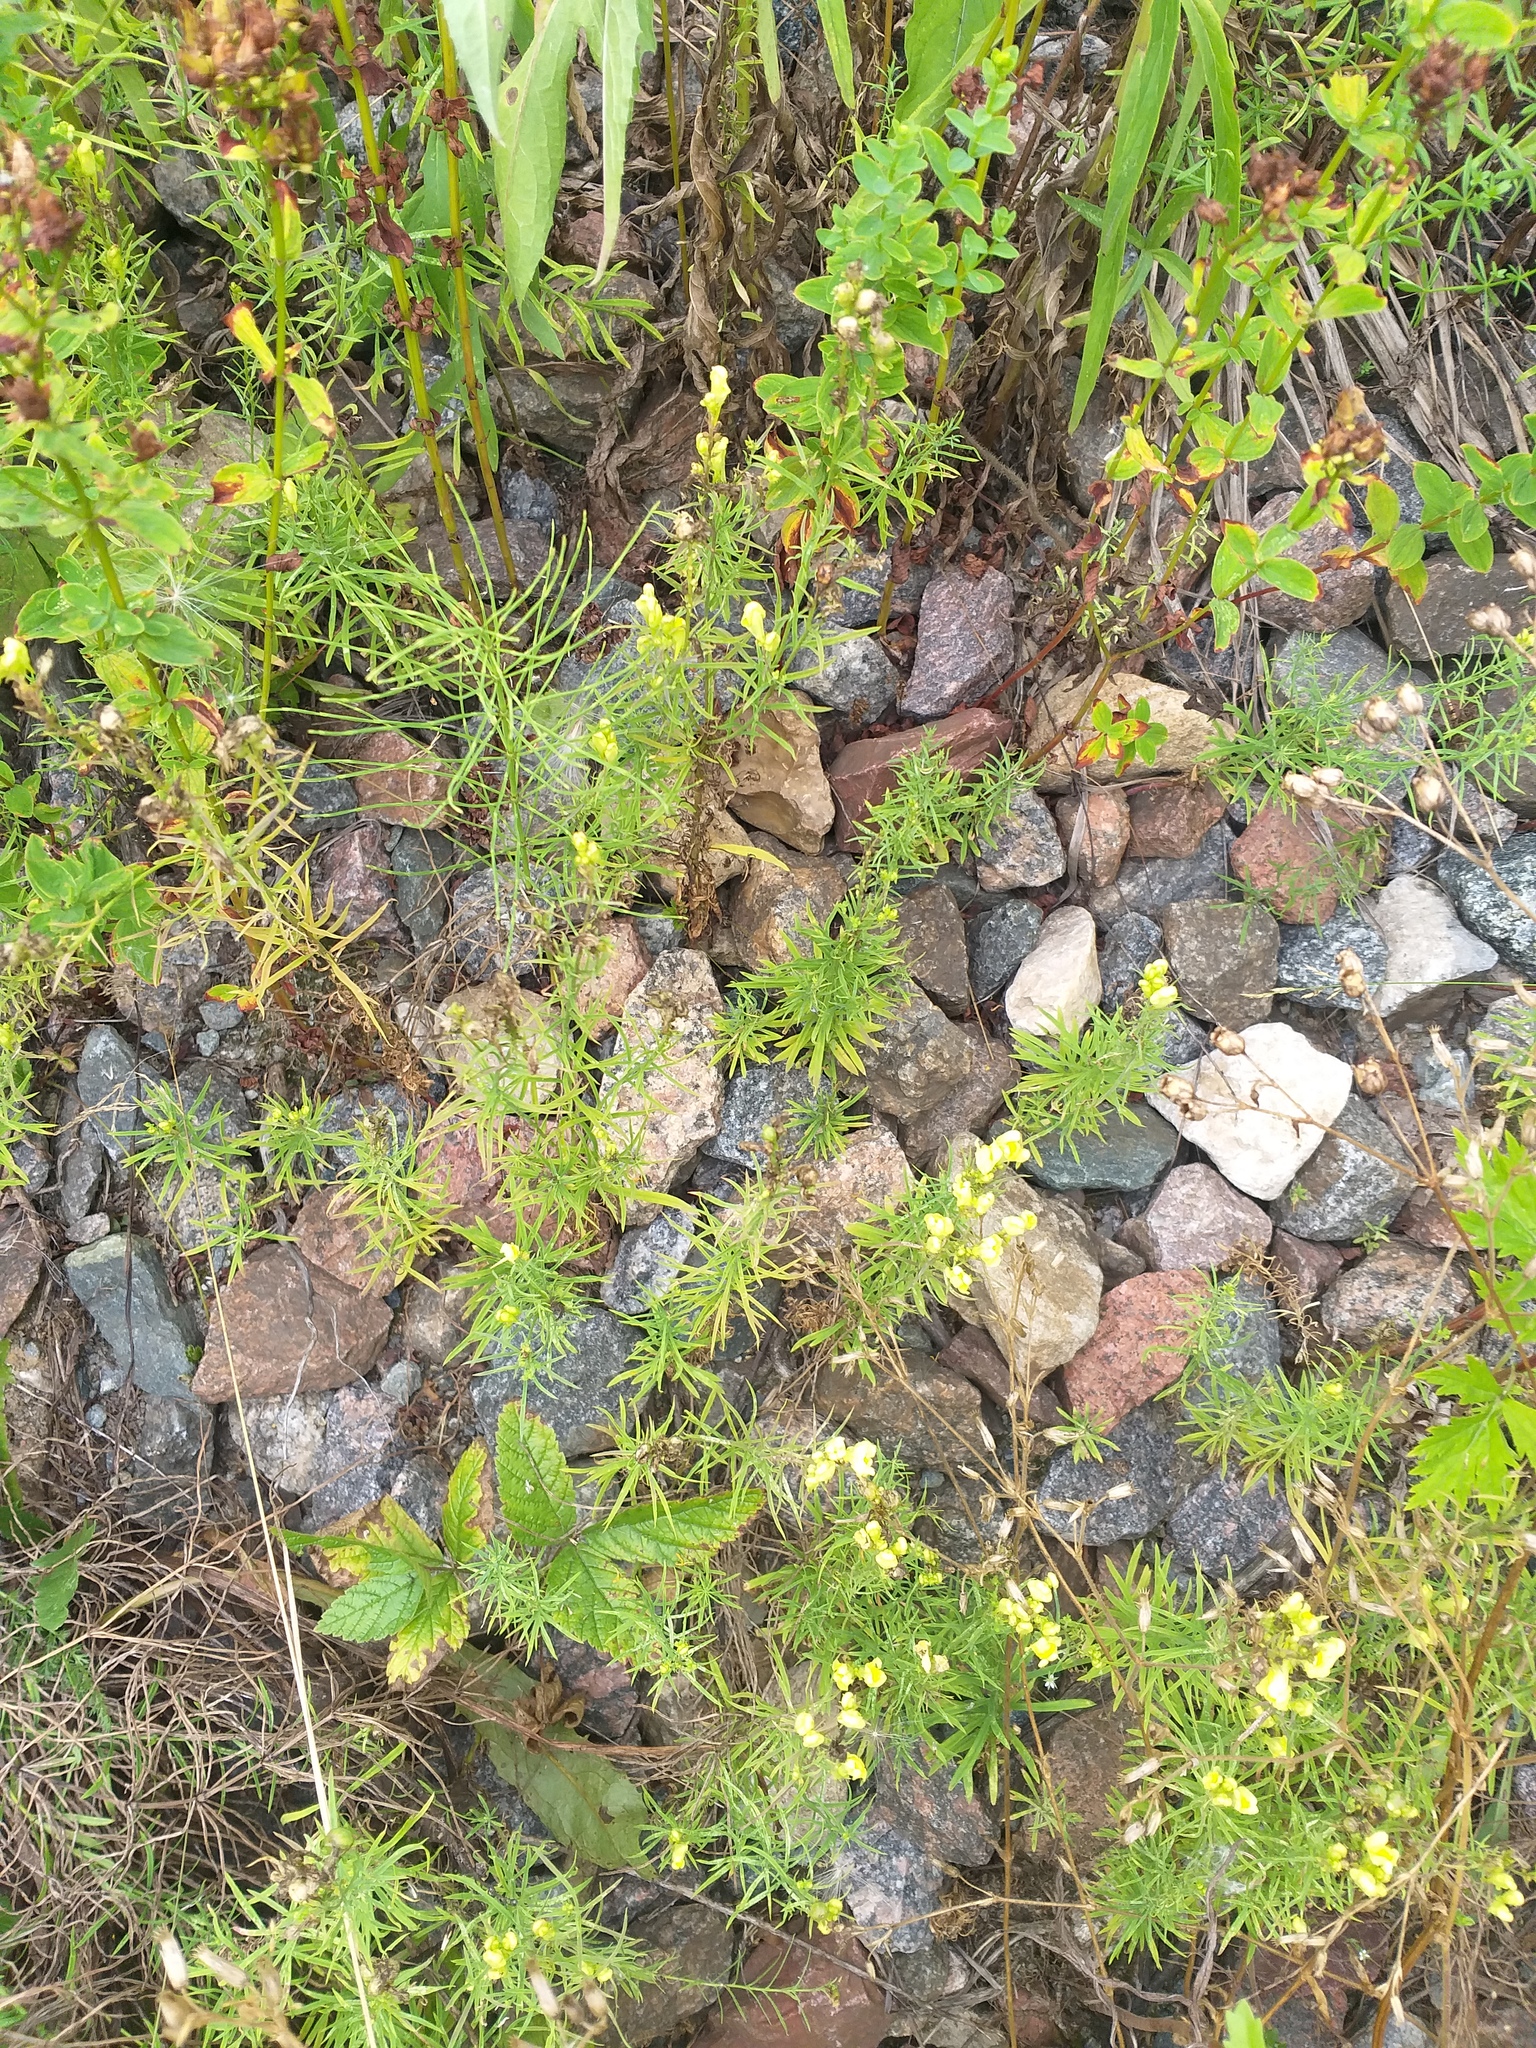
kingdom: Plantae
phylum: Tracheophyta
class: Magnoliopsida
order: Lamiales
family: Plantaginaceae
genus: Linaria
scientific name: Linaria vulgaris
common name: Butter and eggs
